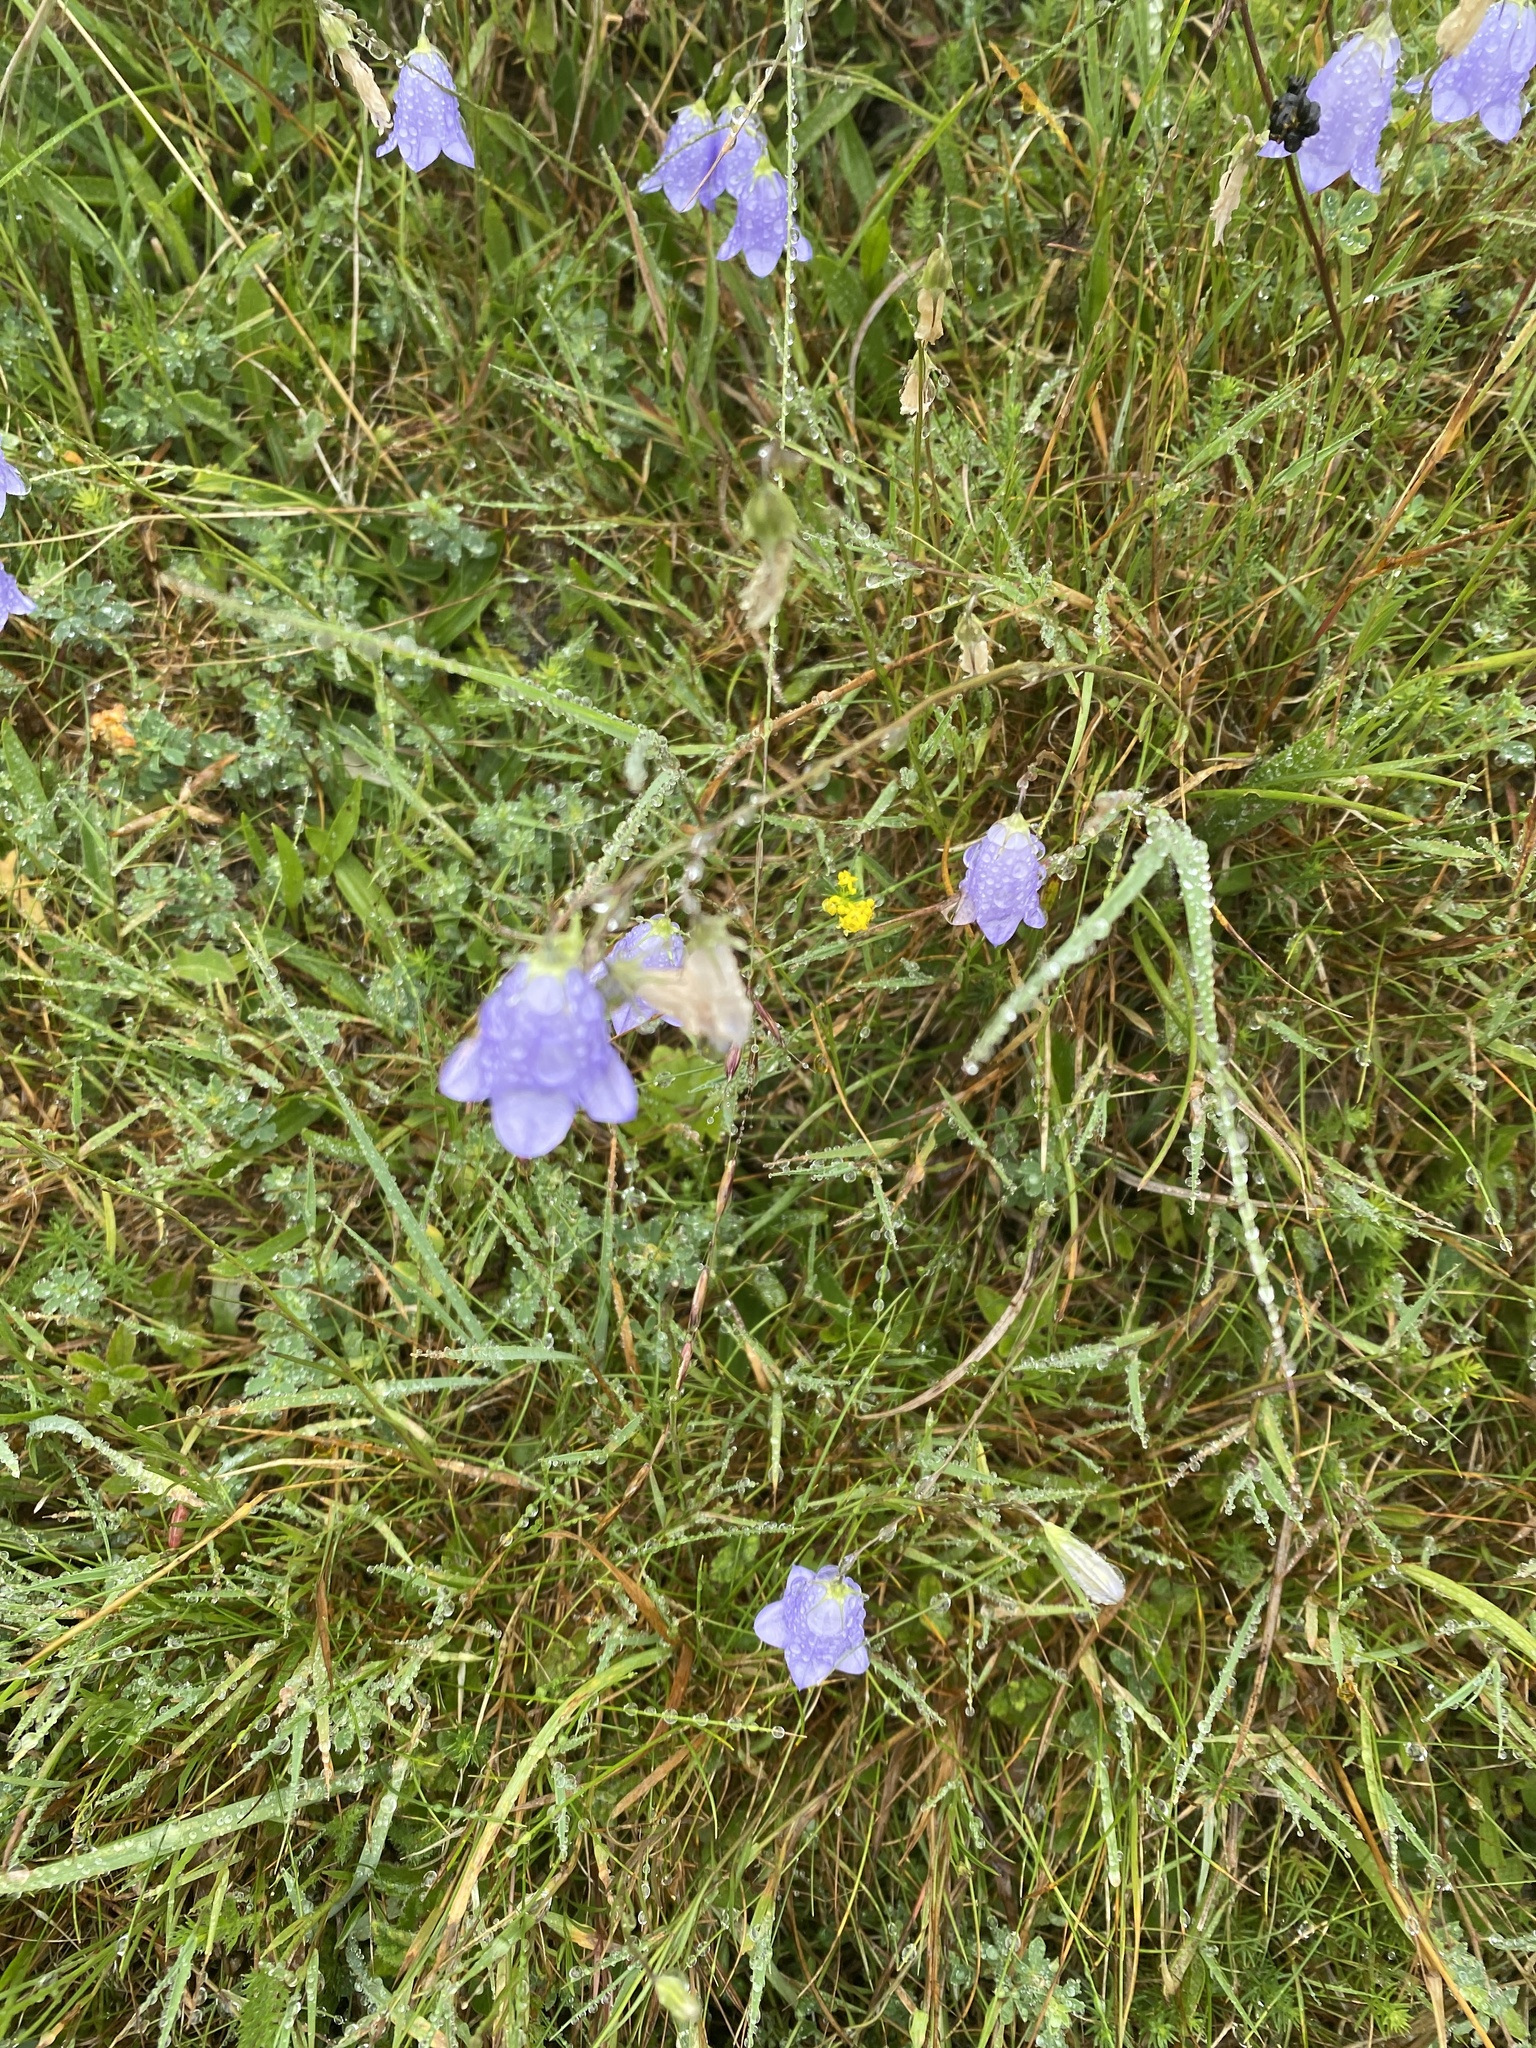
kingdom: Plantae
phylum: Tracheophyta
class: Magnoliopsida
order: Asterales
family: Campanulaceae
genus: Campanula
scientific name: Campanula rotundifolia
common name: Harebell
